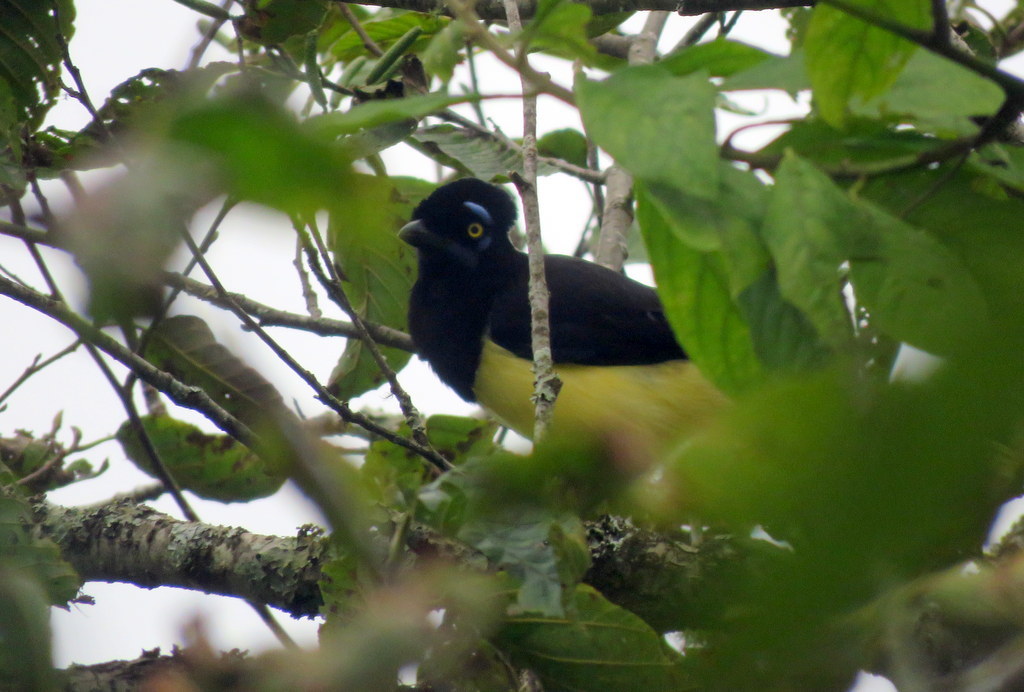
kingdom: Animalia
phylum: Chordata
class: Aves
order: Passeriformes
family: Corvidae
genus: Cyanocorax
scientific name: Cyanocorax chrysops
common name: Plush-crested jay
